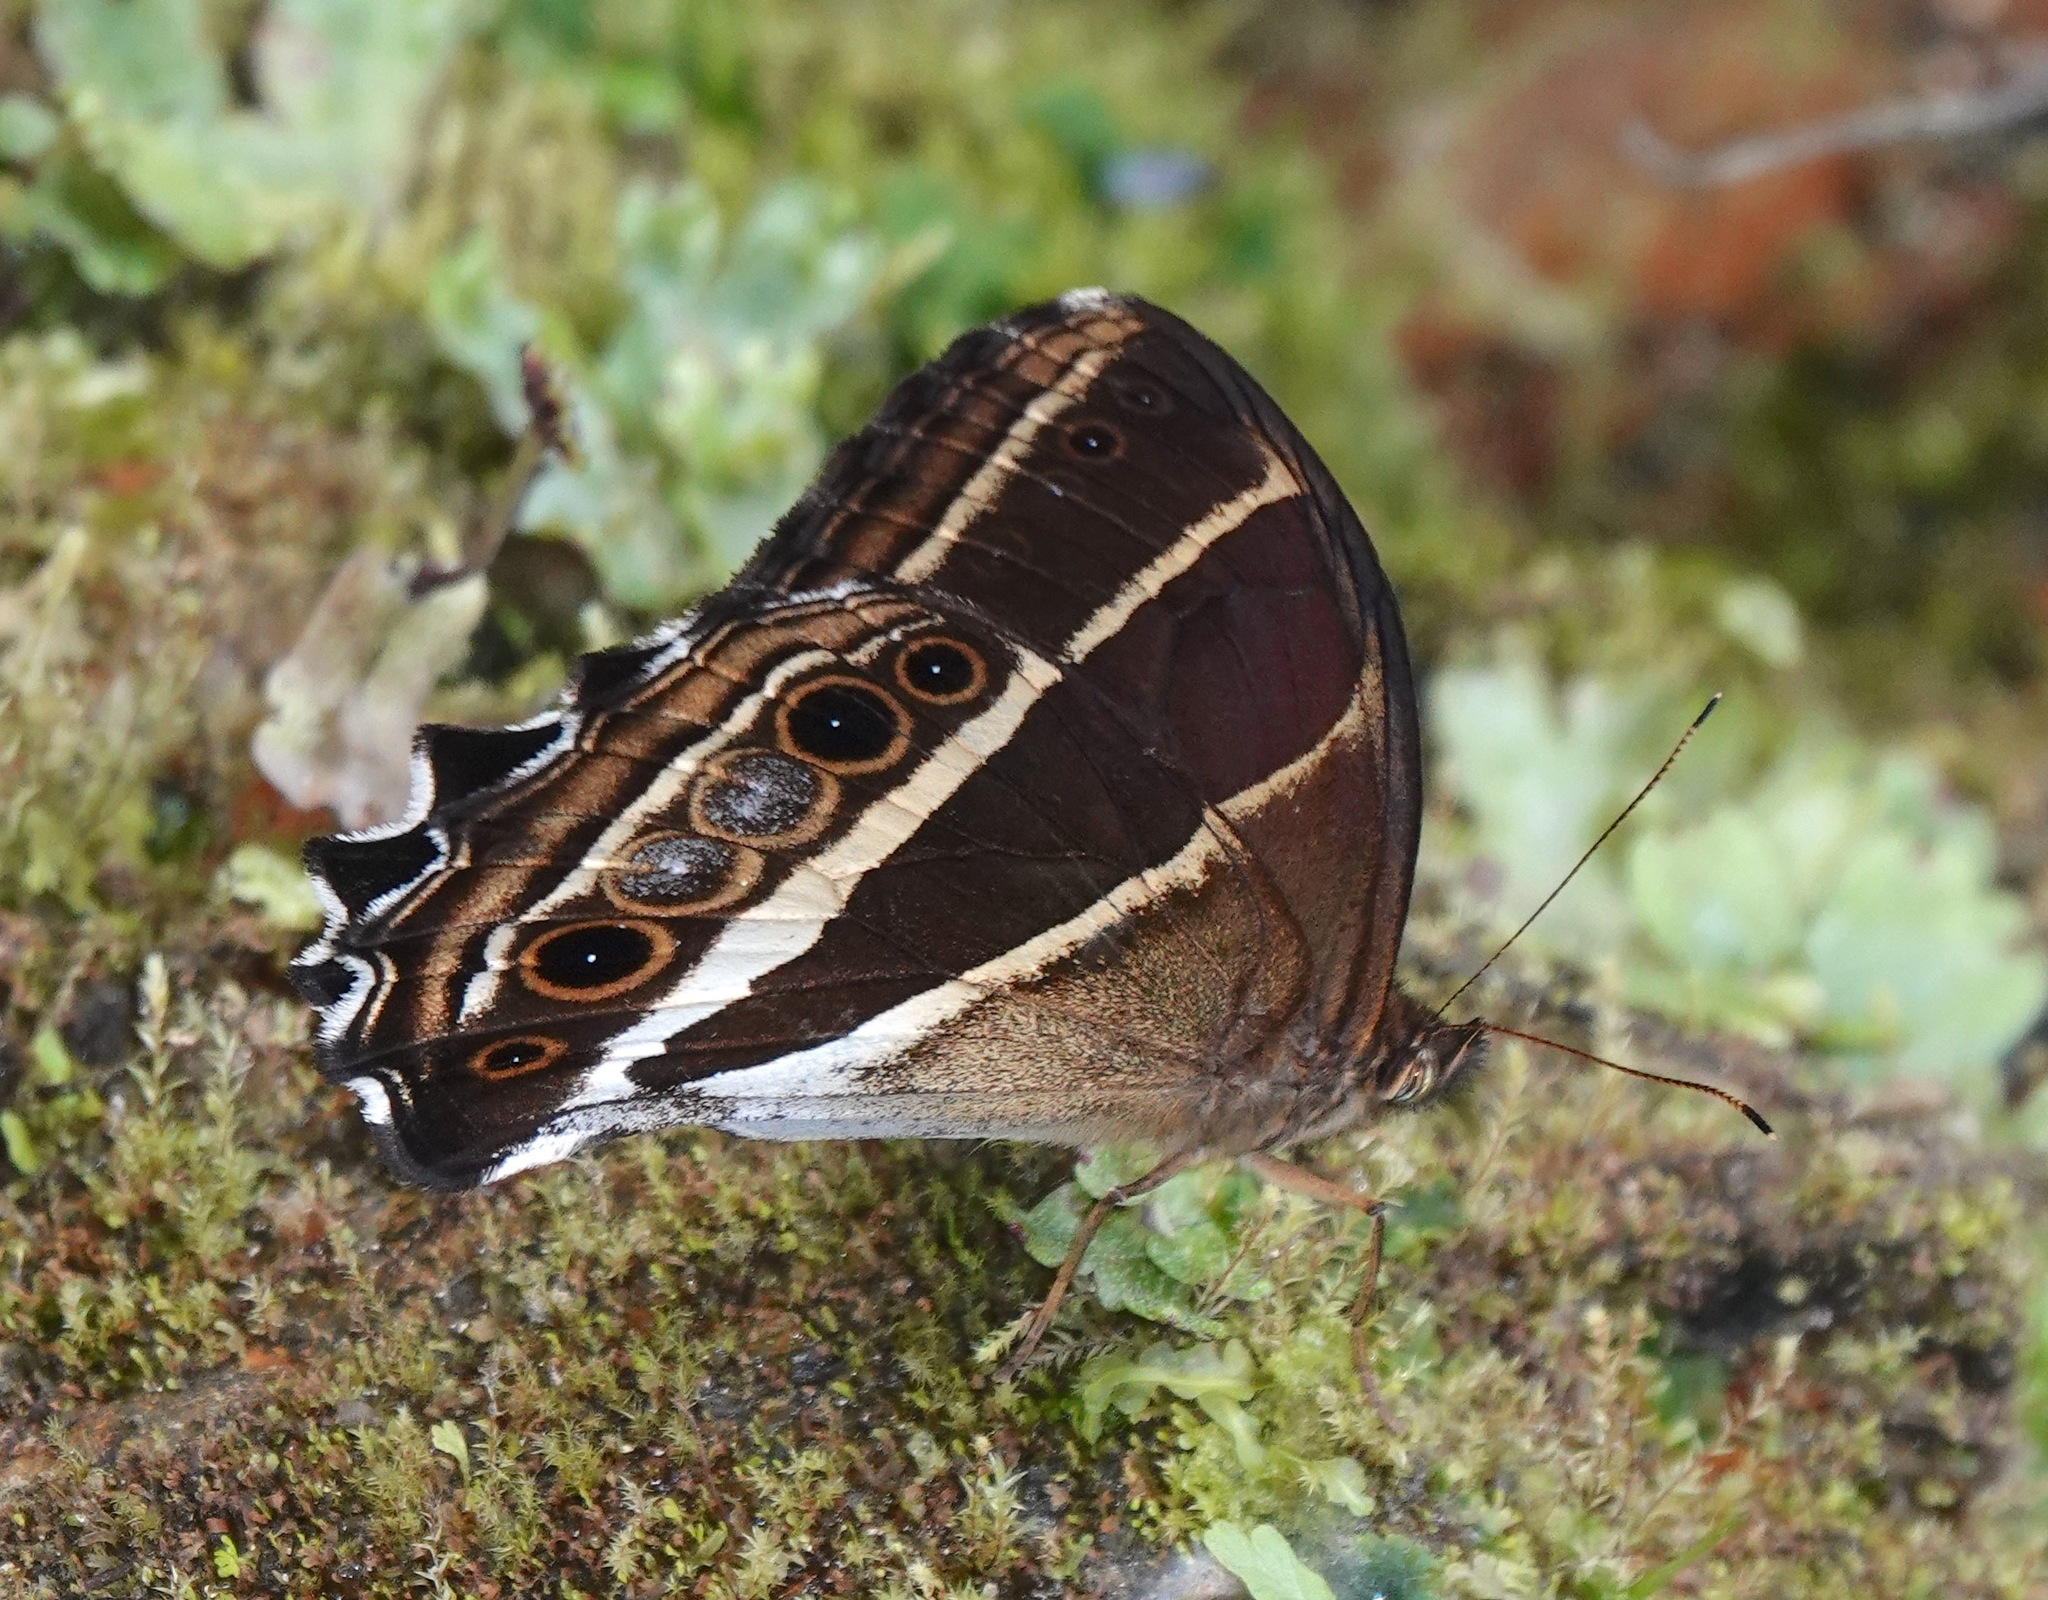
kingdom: Animalia
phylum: Arthropoda
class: Insecta
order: Lepidoptera
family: Nymphalidae
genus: Parataygetis
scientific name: Parataygetis albinotata
